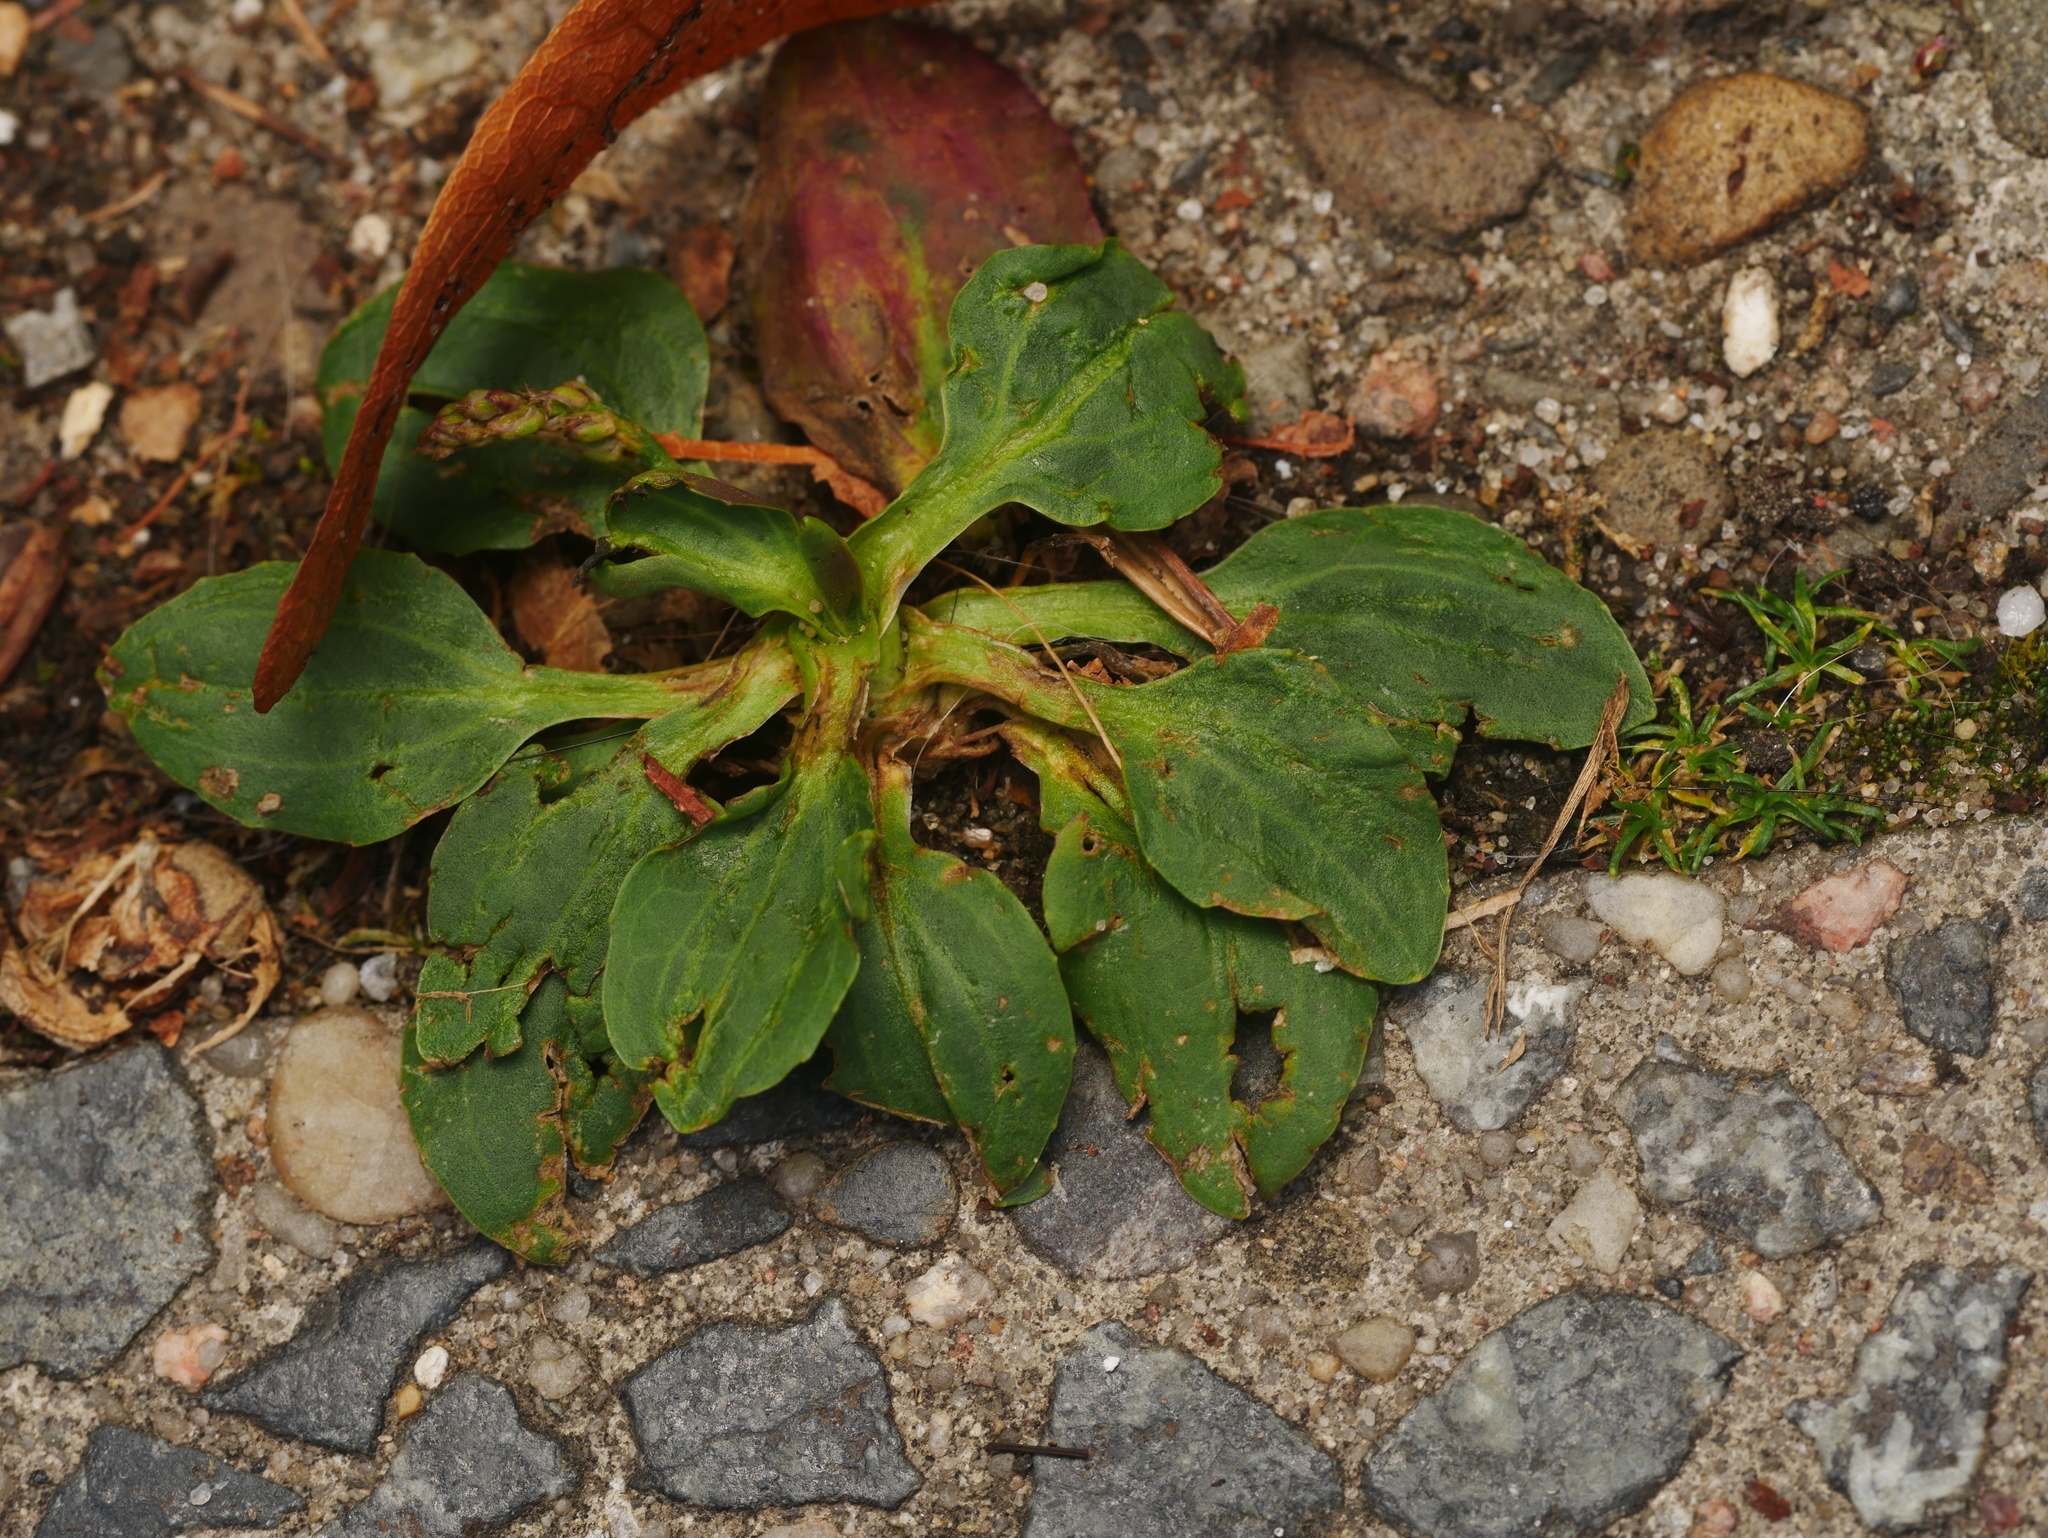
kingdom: Plantae
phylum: Tracheophyta
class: Magnoliopsida
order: Lamiales
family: Plantaginaceae
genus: Plantago
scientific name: Plantago major
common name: Common plantain
